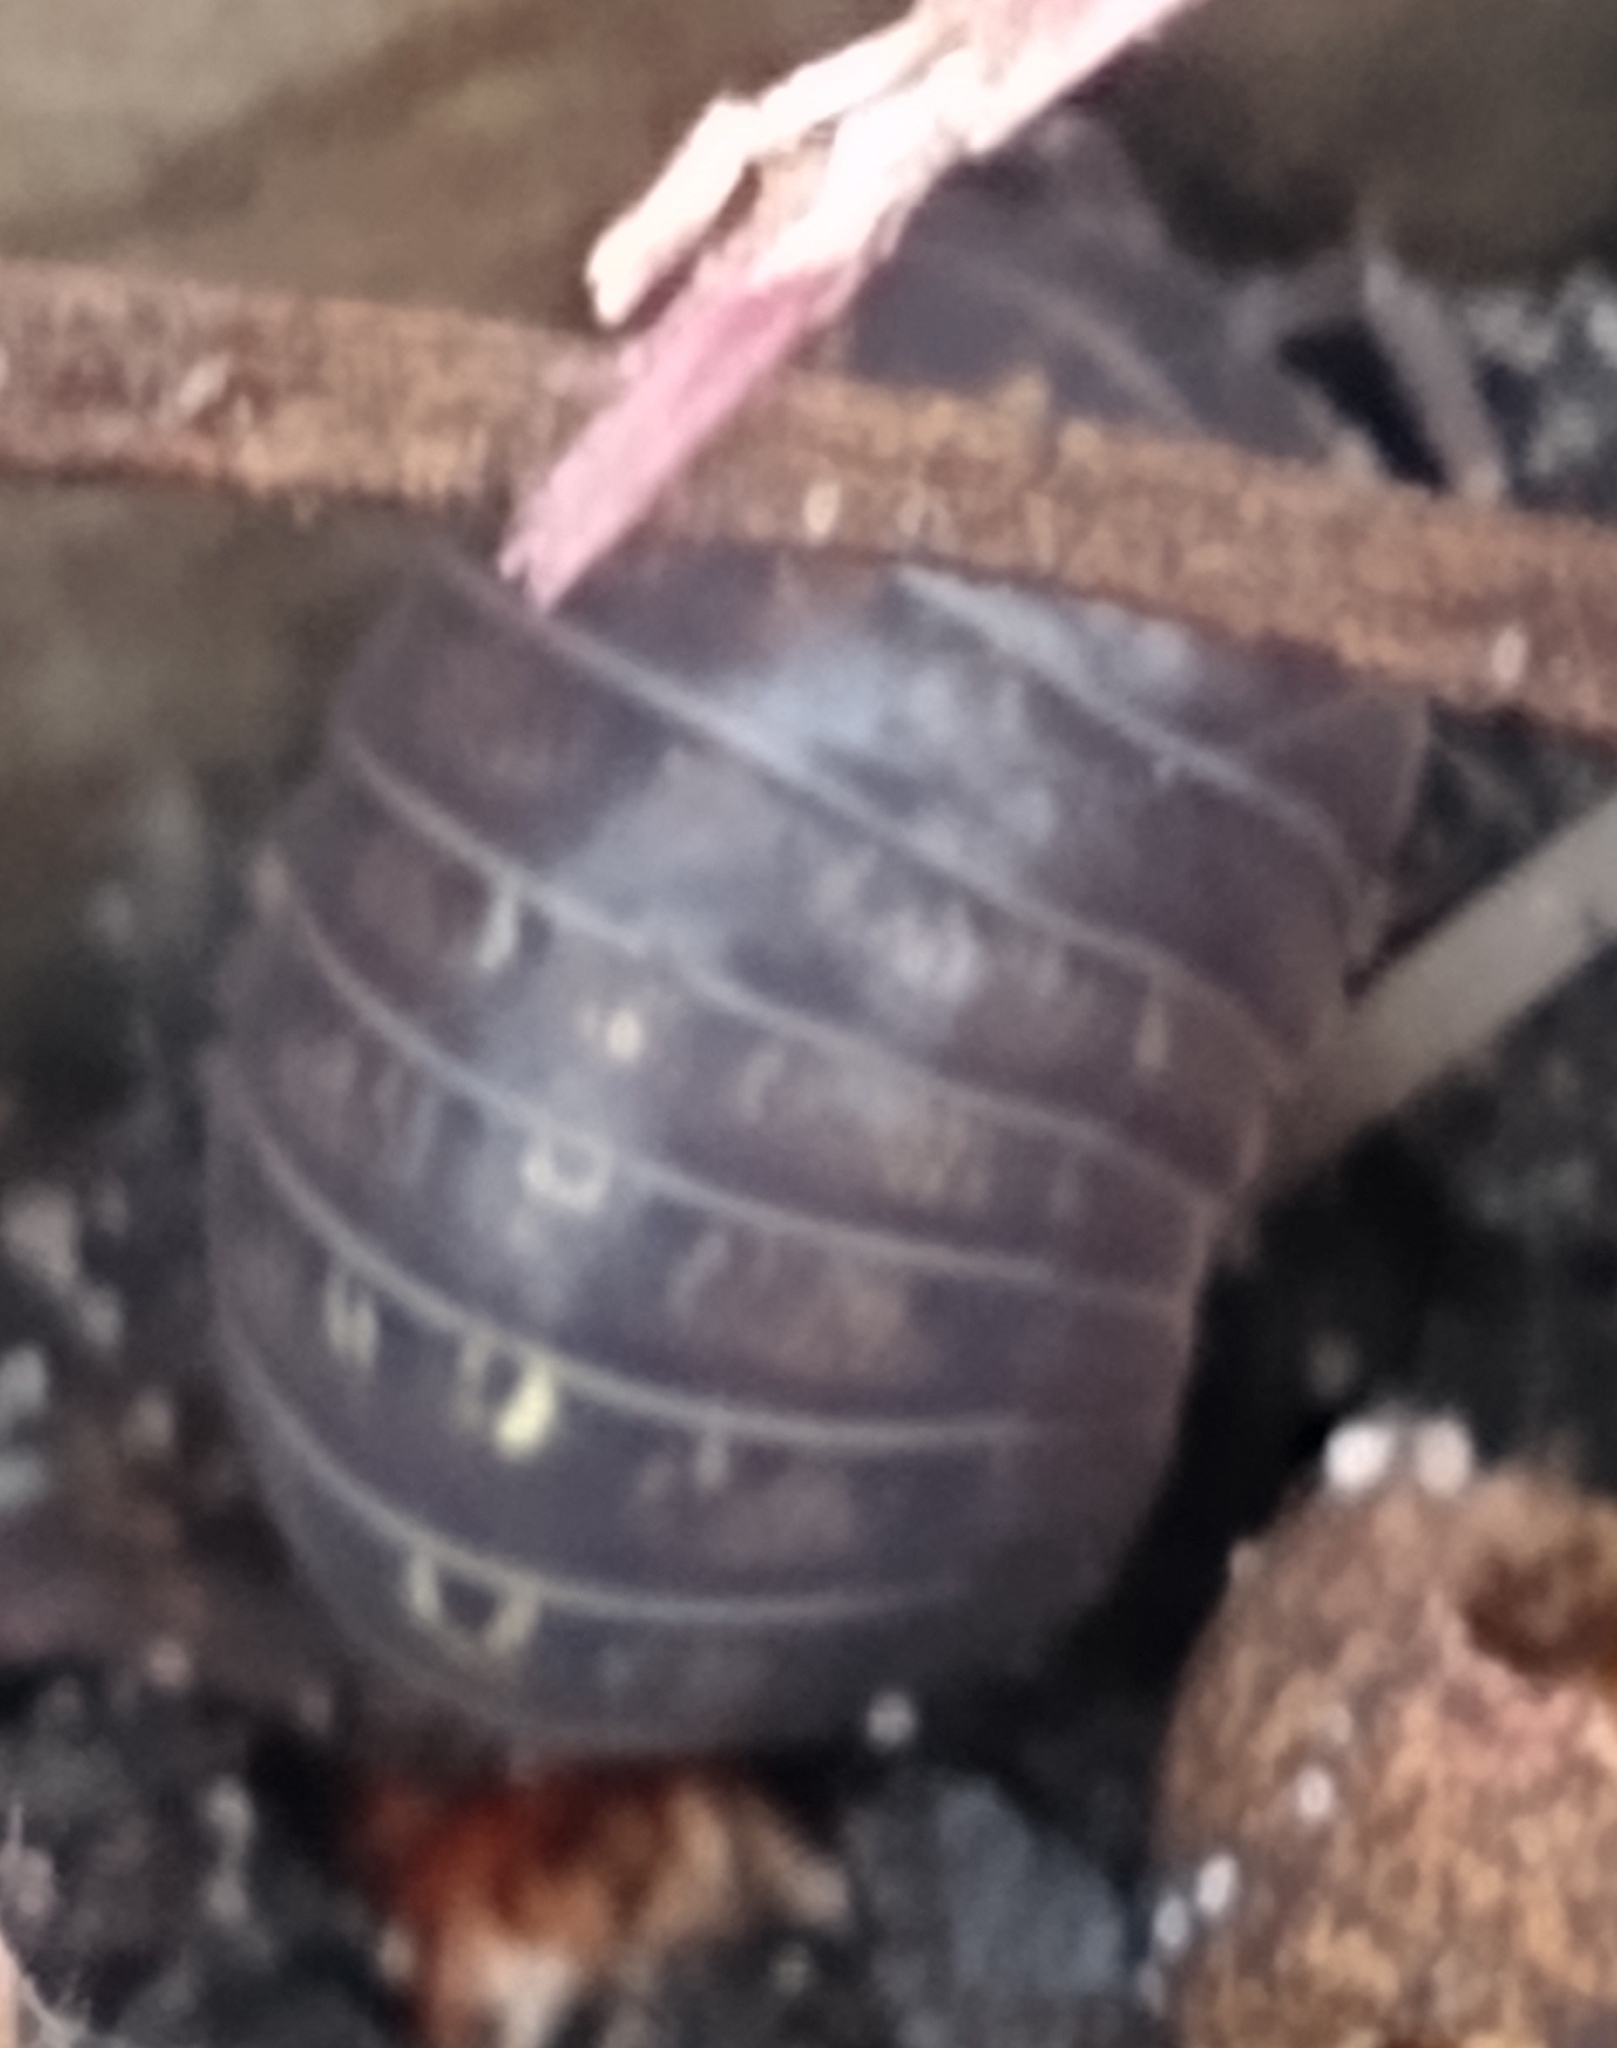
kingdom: Animalia
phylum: Arthropoda
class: Malacostraca
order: Isopoda
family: Armadillidiidae
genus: Armadillidium
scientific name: Armadillidium vulgare
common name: Common pill woodlouse
